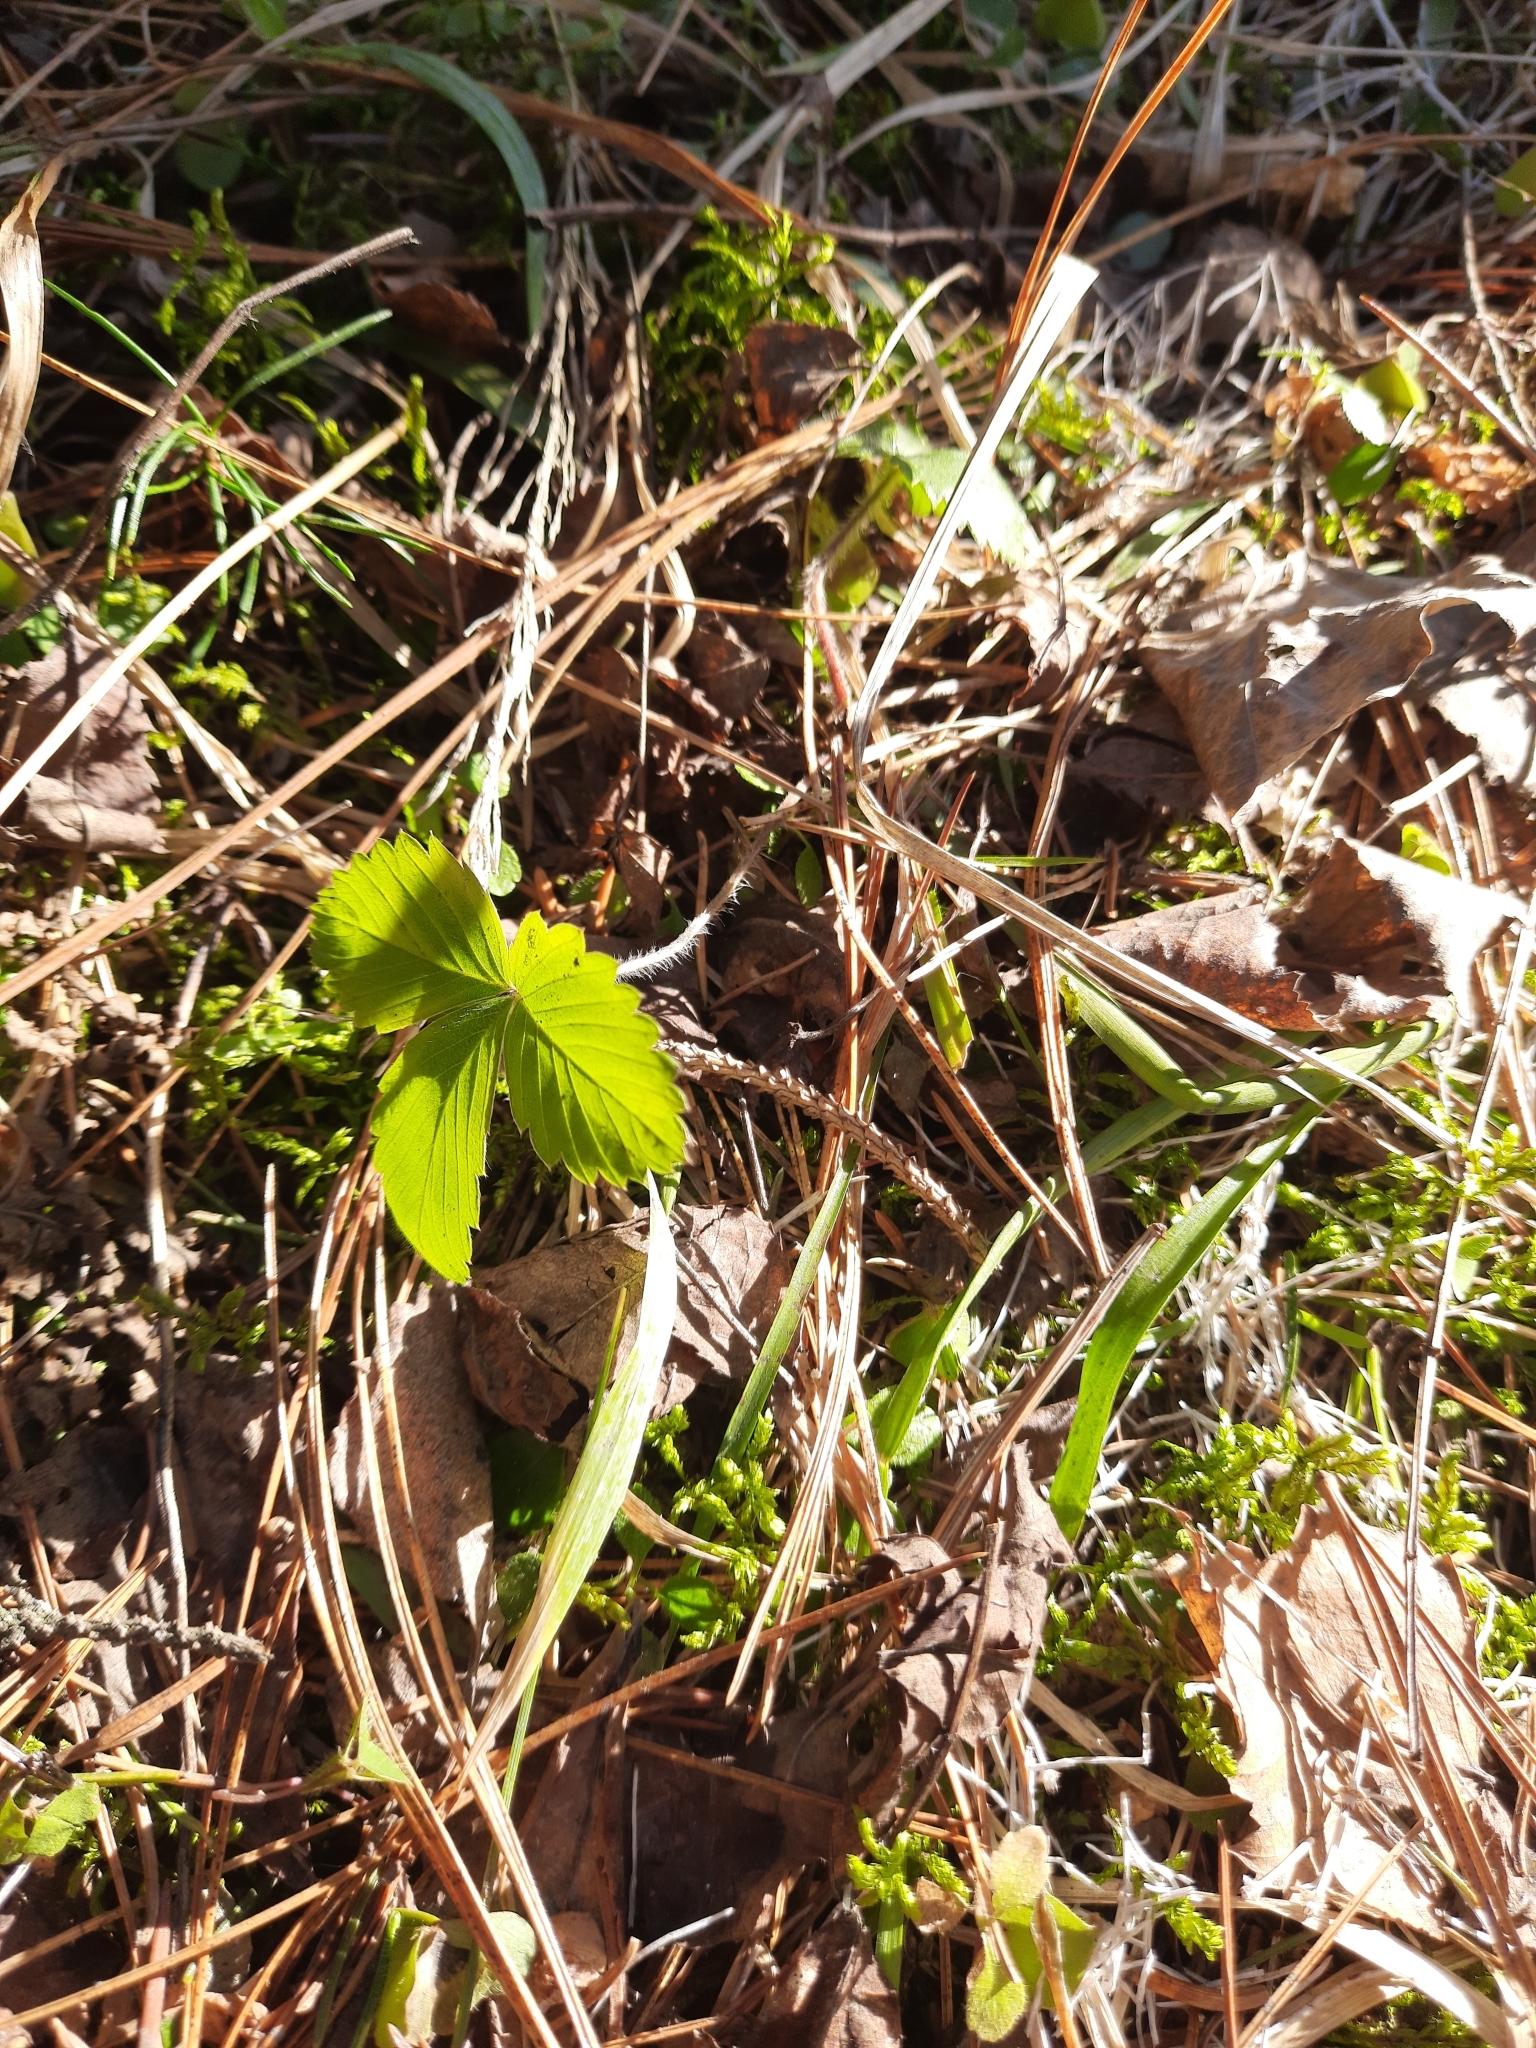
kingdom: Plantae
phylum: Tracheophyta
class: Magnoliopsida
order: Rosales
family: Rosaceae
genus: Fragaria
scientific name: Fragaria vesca
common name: Wild strawberry
